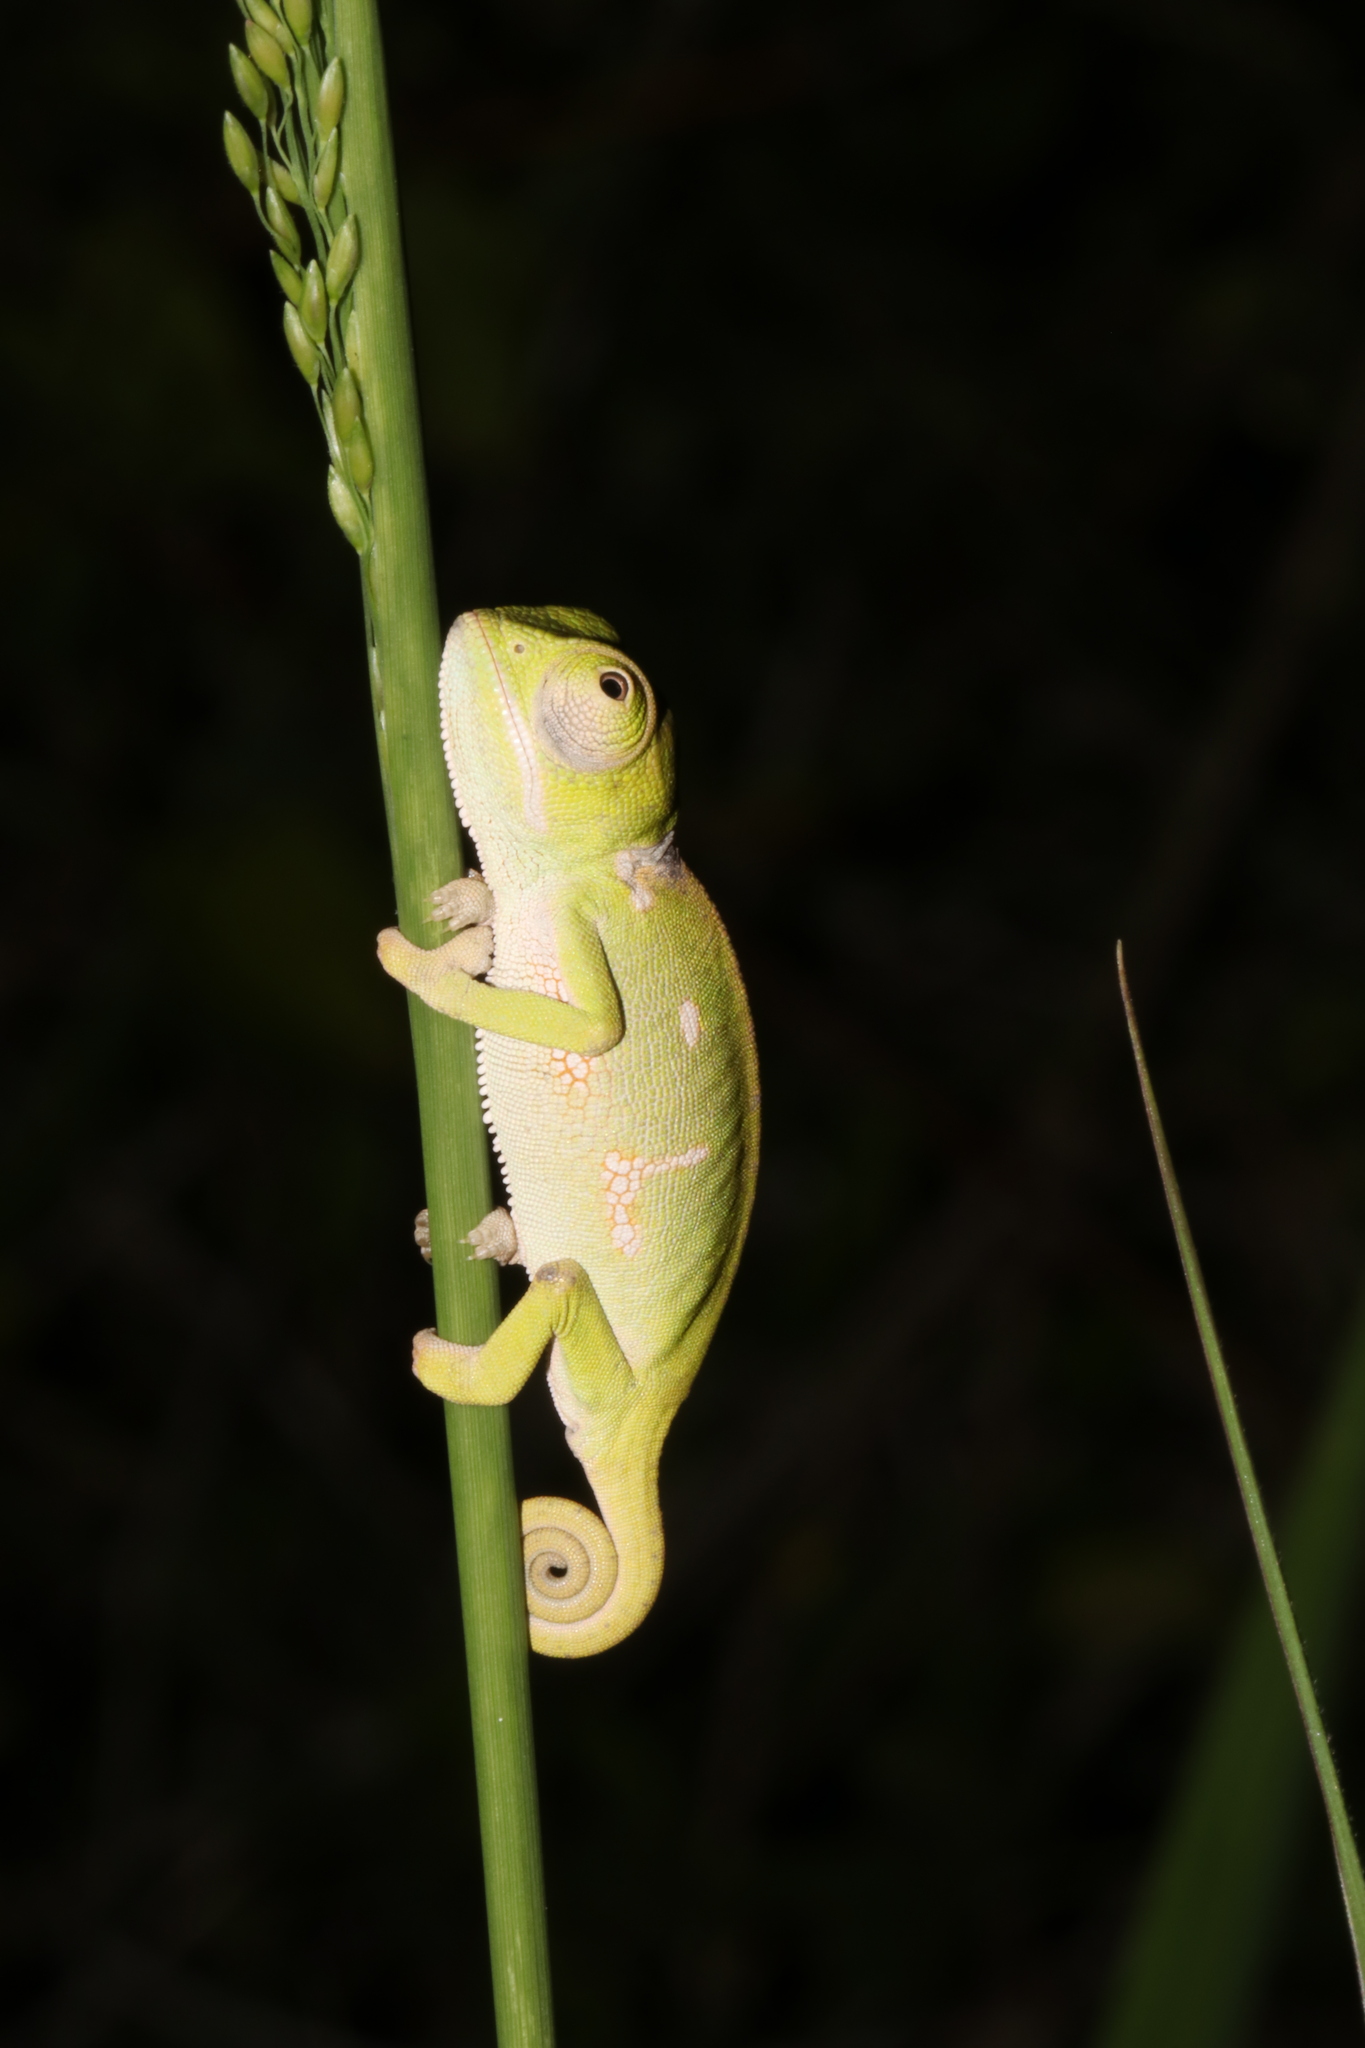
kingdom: Animalia
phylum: Chordata
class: Squamata
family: Chamaeleonidae
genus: Chamaeleo
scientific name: Chamaeleo dilepis
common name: Flapneck chameleon
